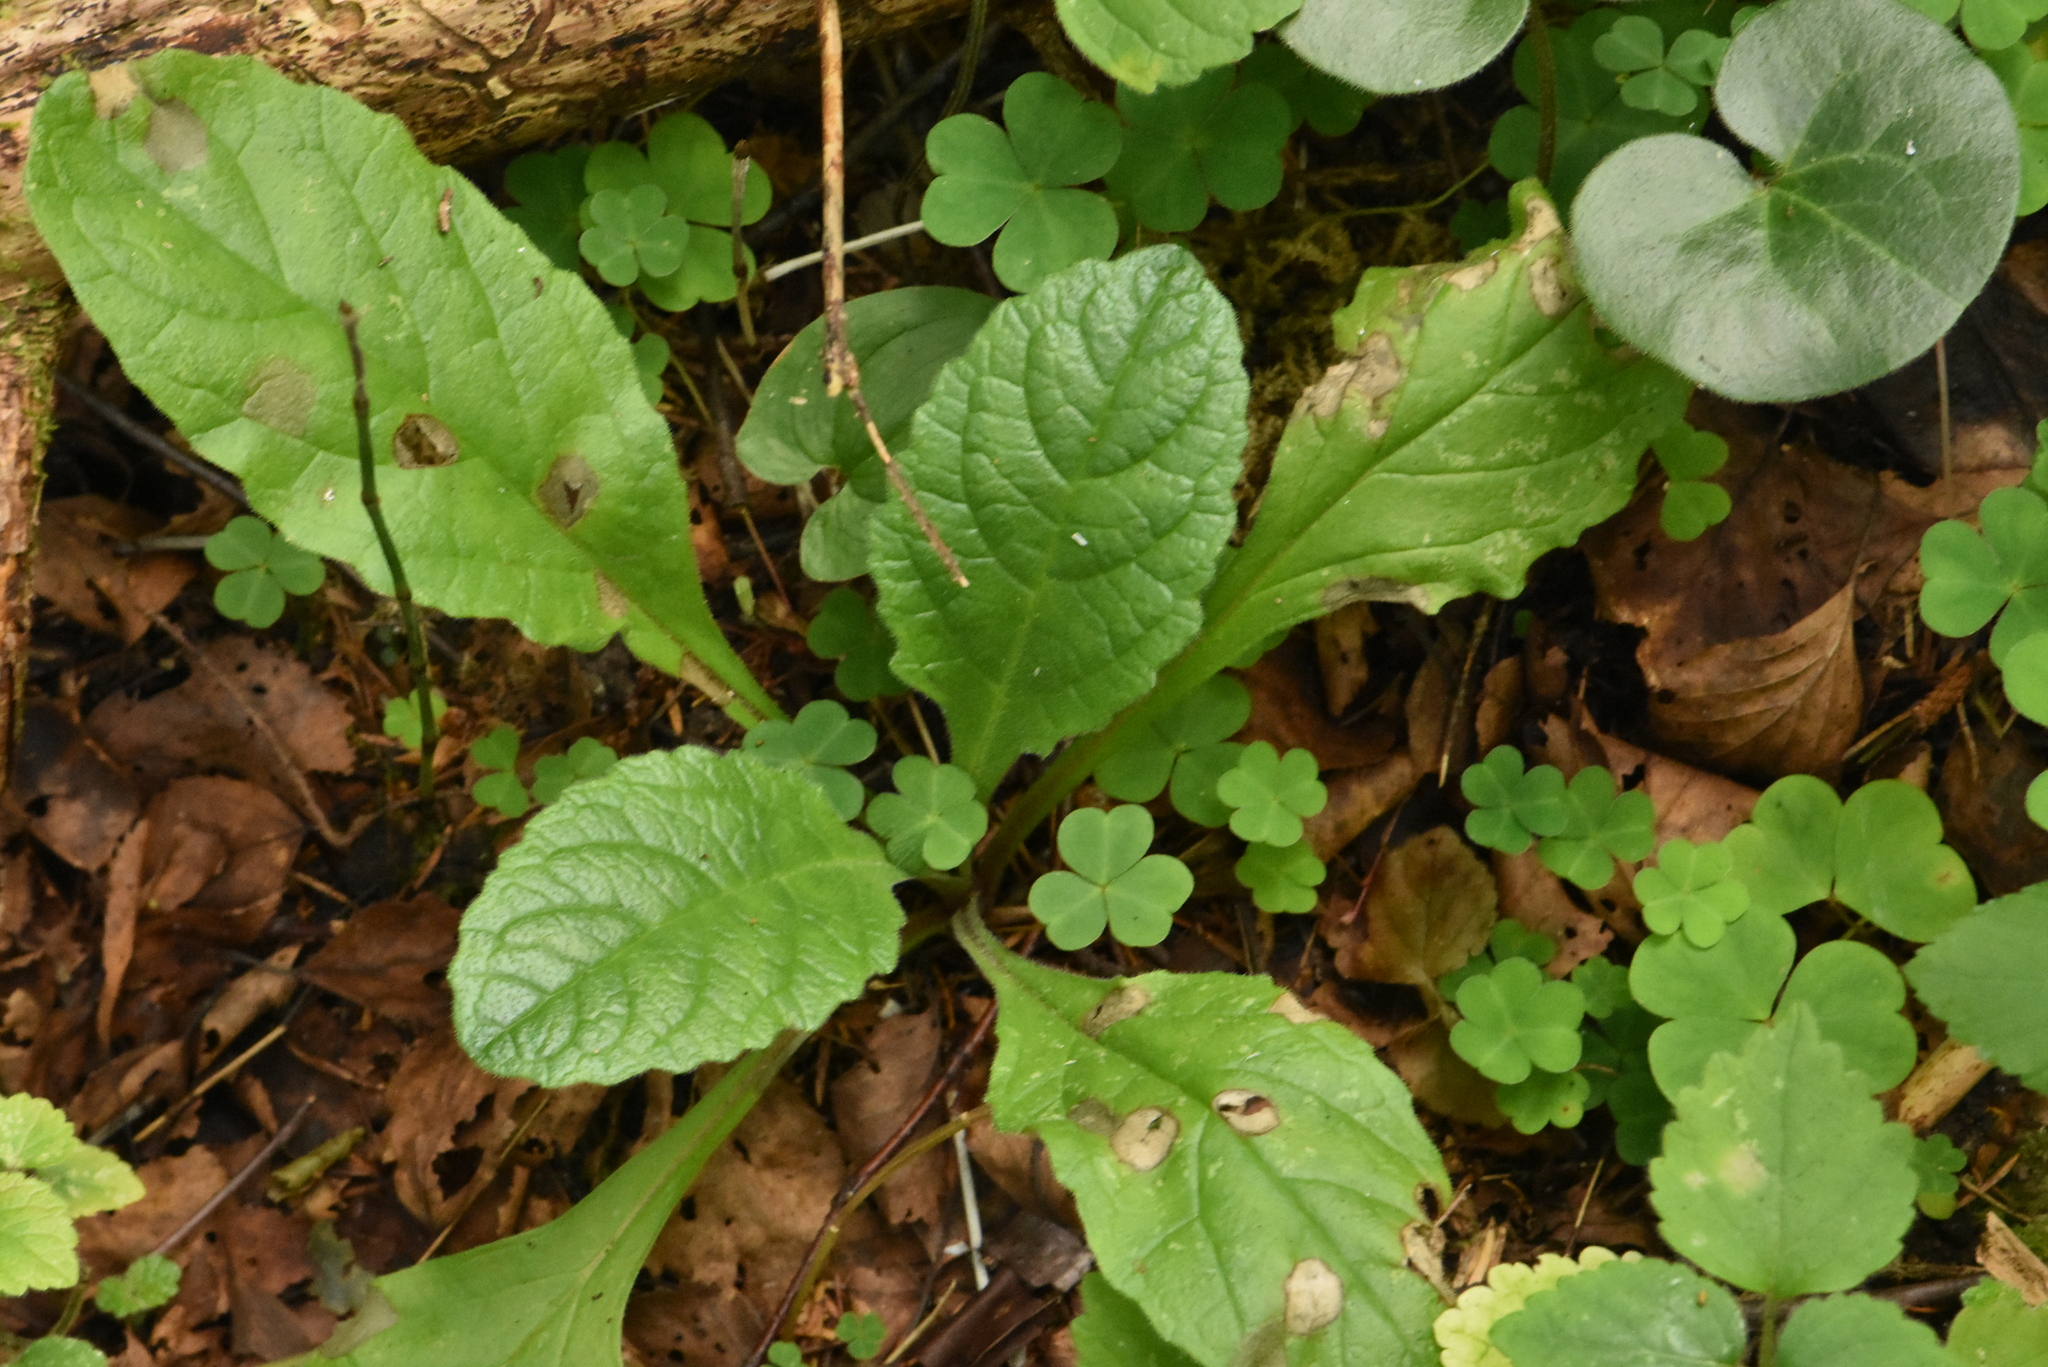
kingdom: Plantae
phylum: Tracheophyta
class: Magnoliopsida
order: Lamiales
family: Lamiaceae
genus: Ajuga
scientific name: Ajuga reptans
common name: Bugle
